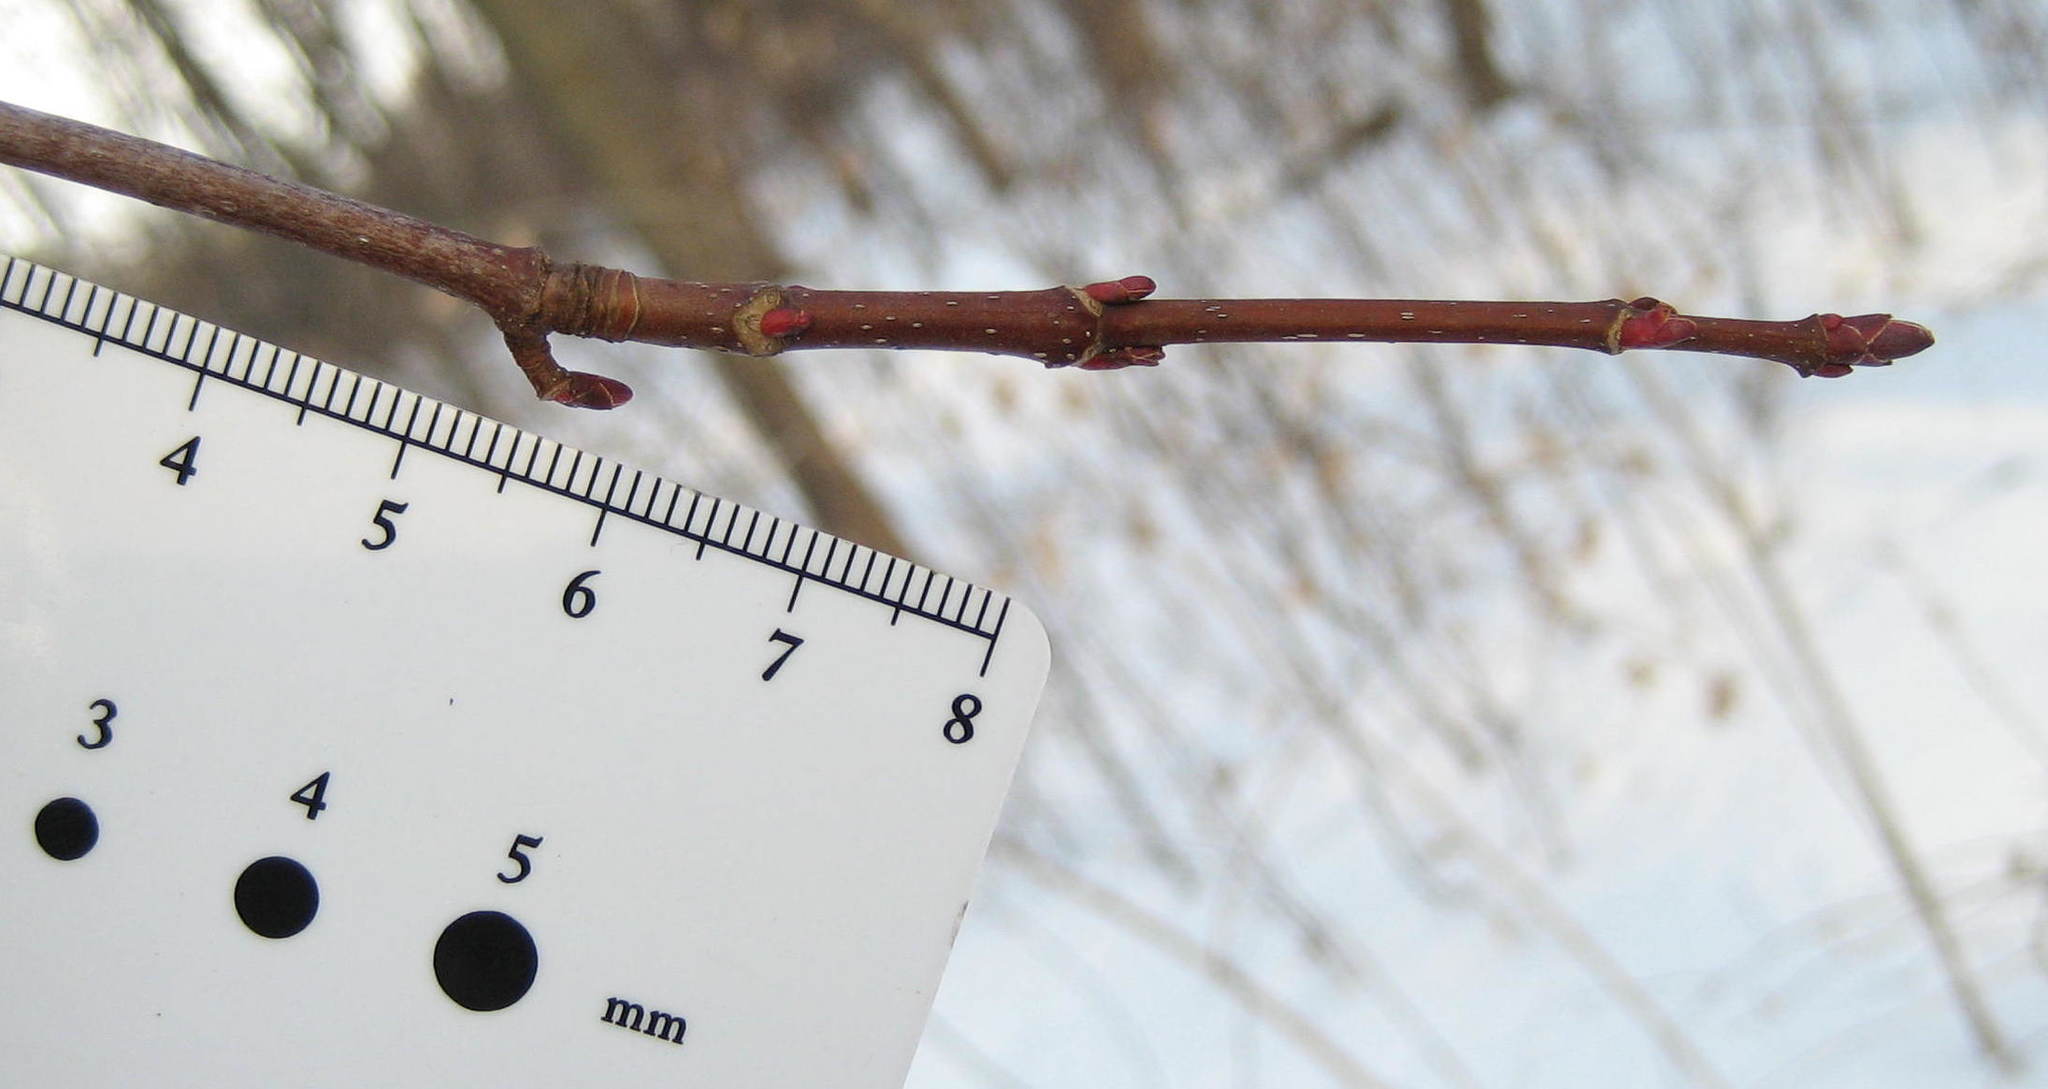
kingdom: Plantae
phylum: Tracheophyta
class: Magnoliopsida
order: Sapindales
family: Sapindaceae
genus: Acer
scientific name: Acer rubrum
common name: Red maple
